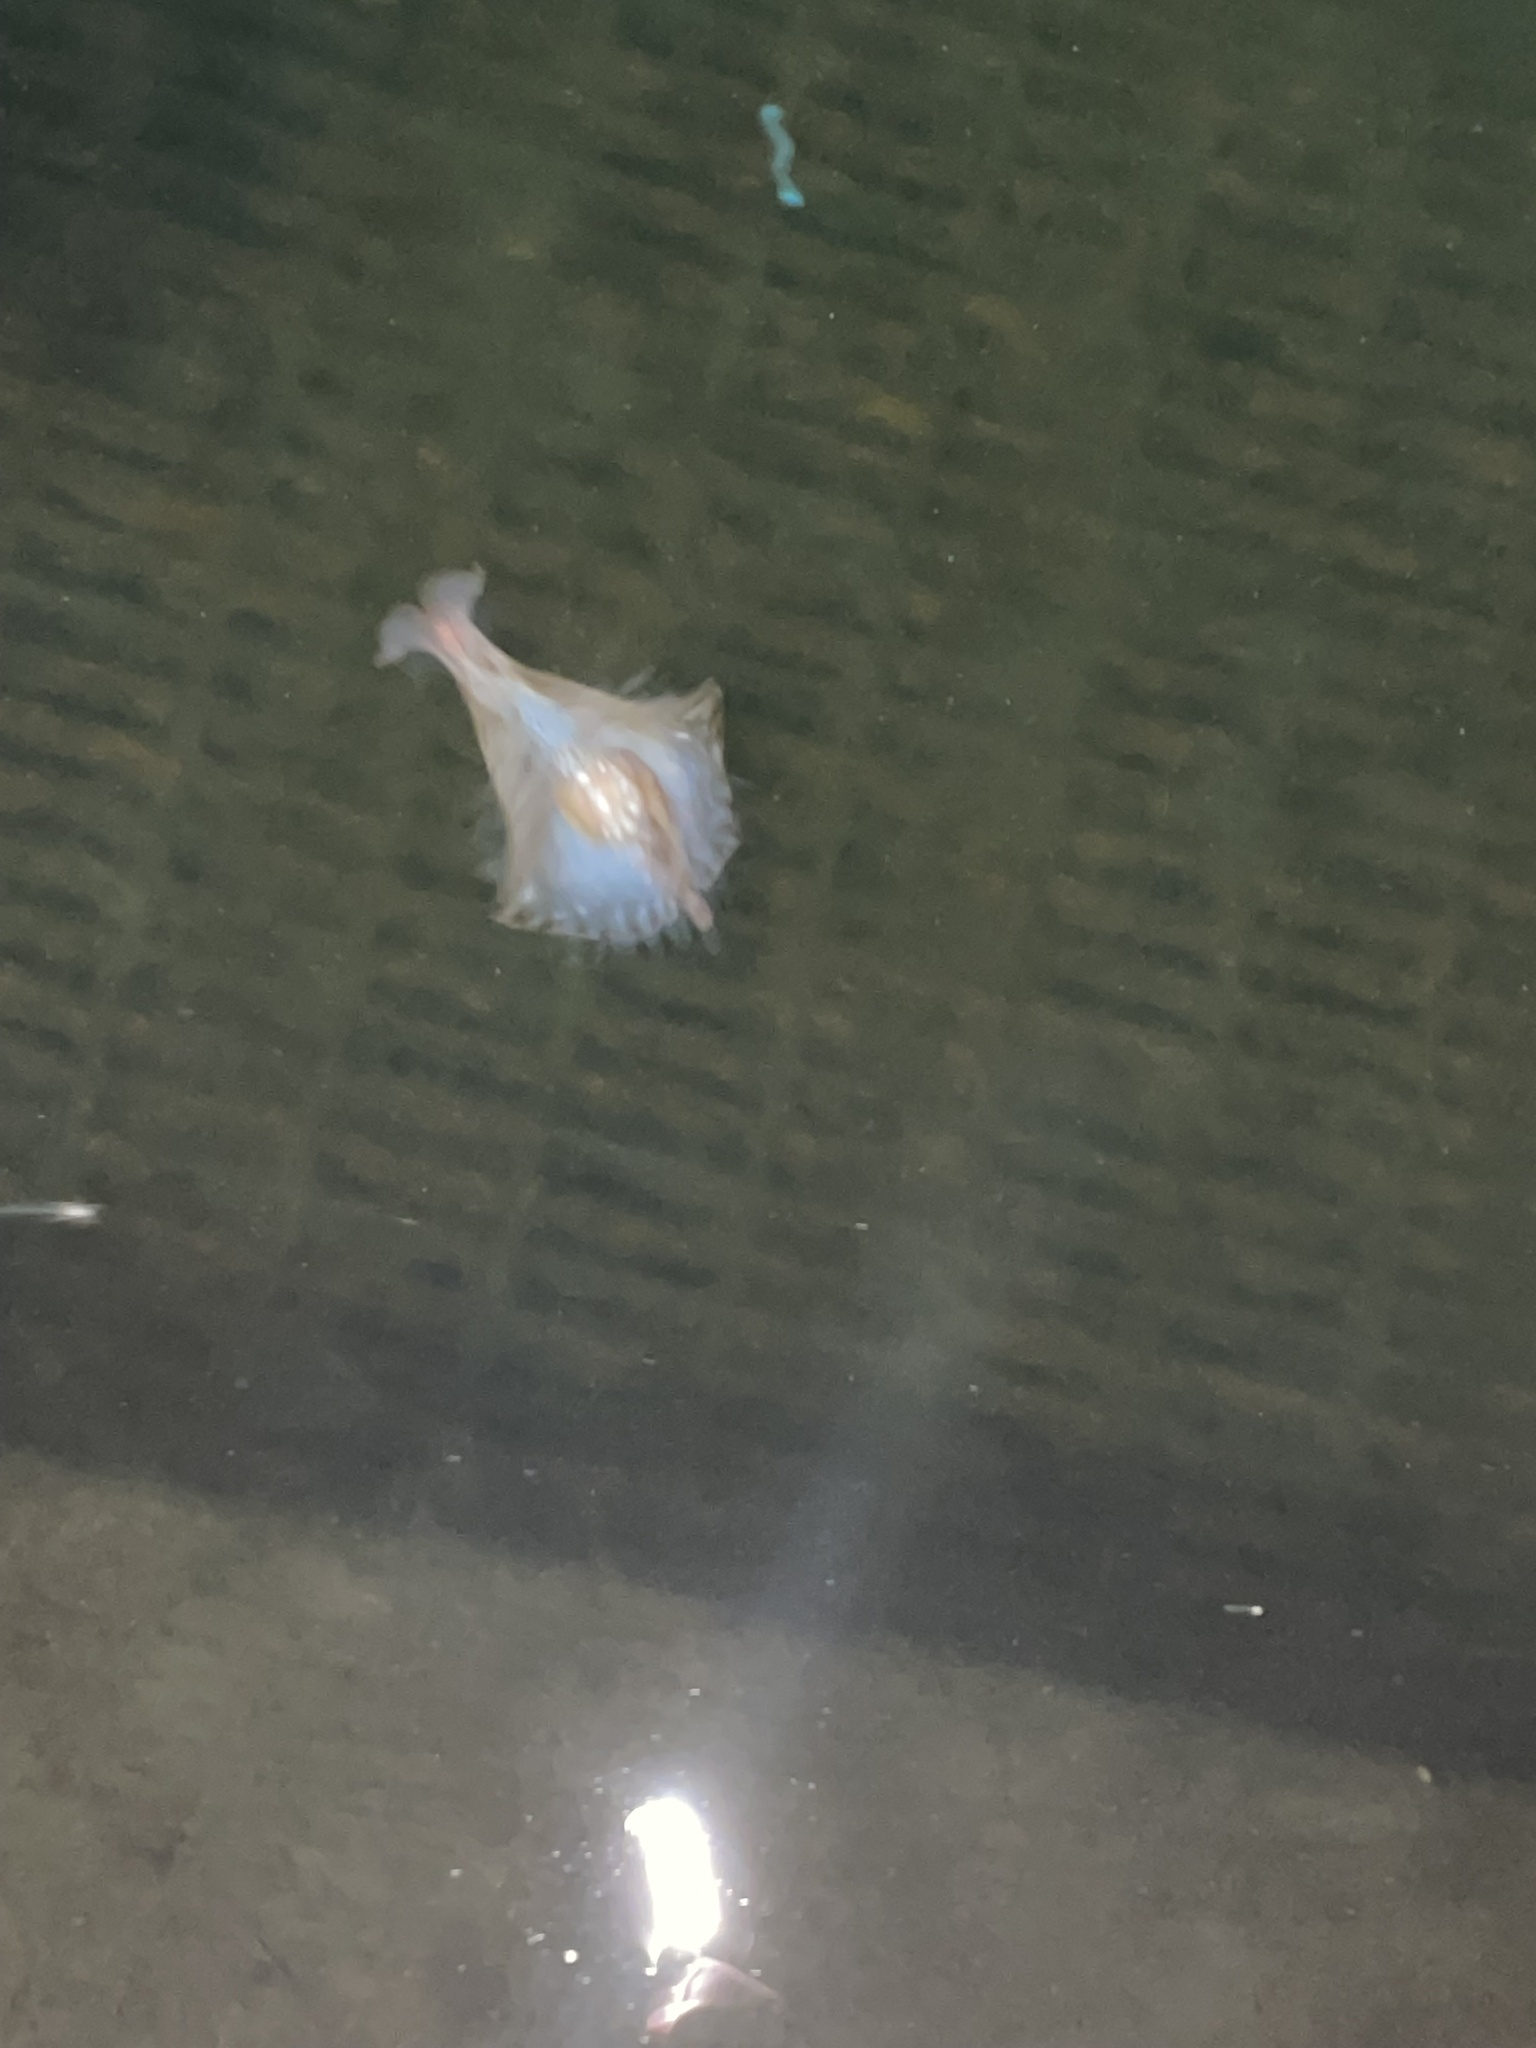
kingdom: Animalia
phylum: Mollusca
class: Gastropoda
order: Aplysiida
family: Aplysiidae
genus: Aplysia
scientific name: Aplysia brasiliana
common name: Mottled seahare
